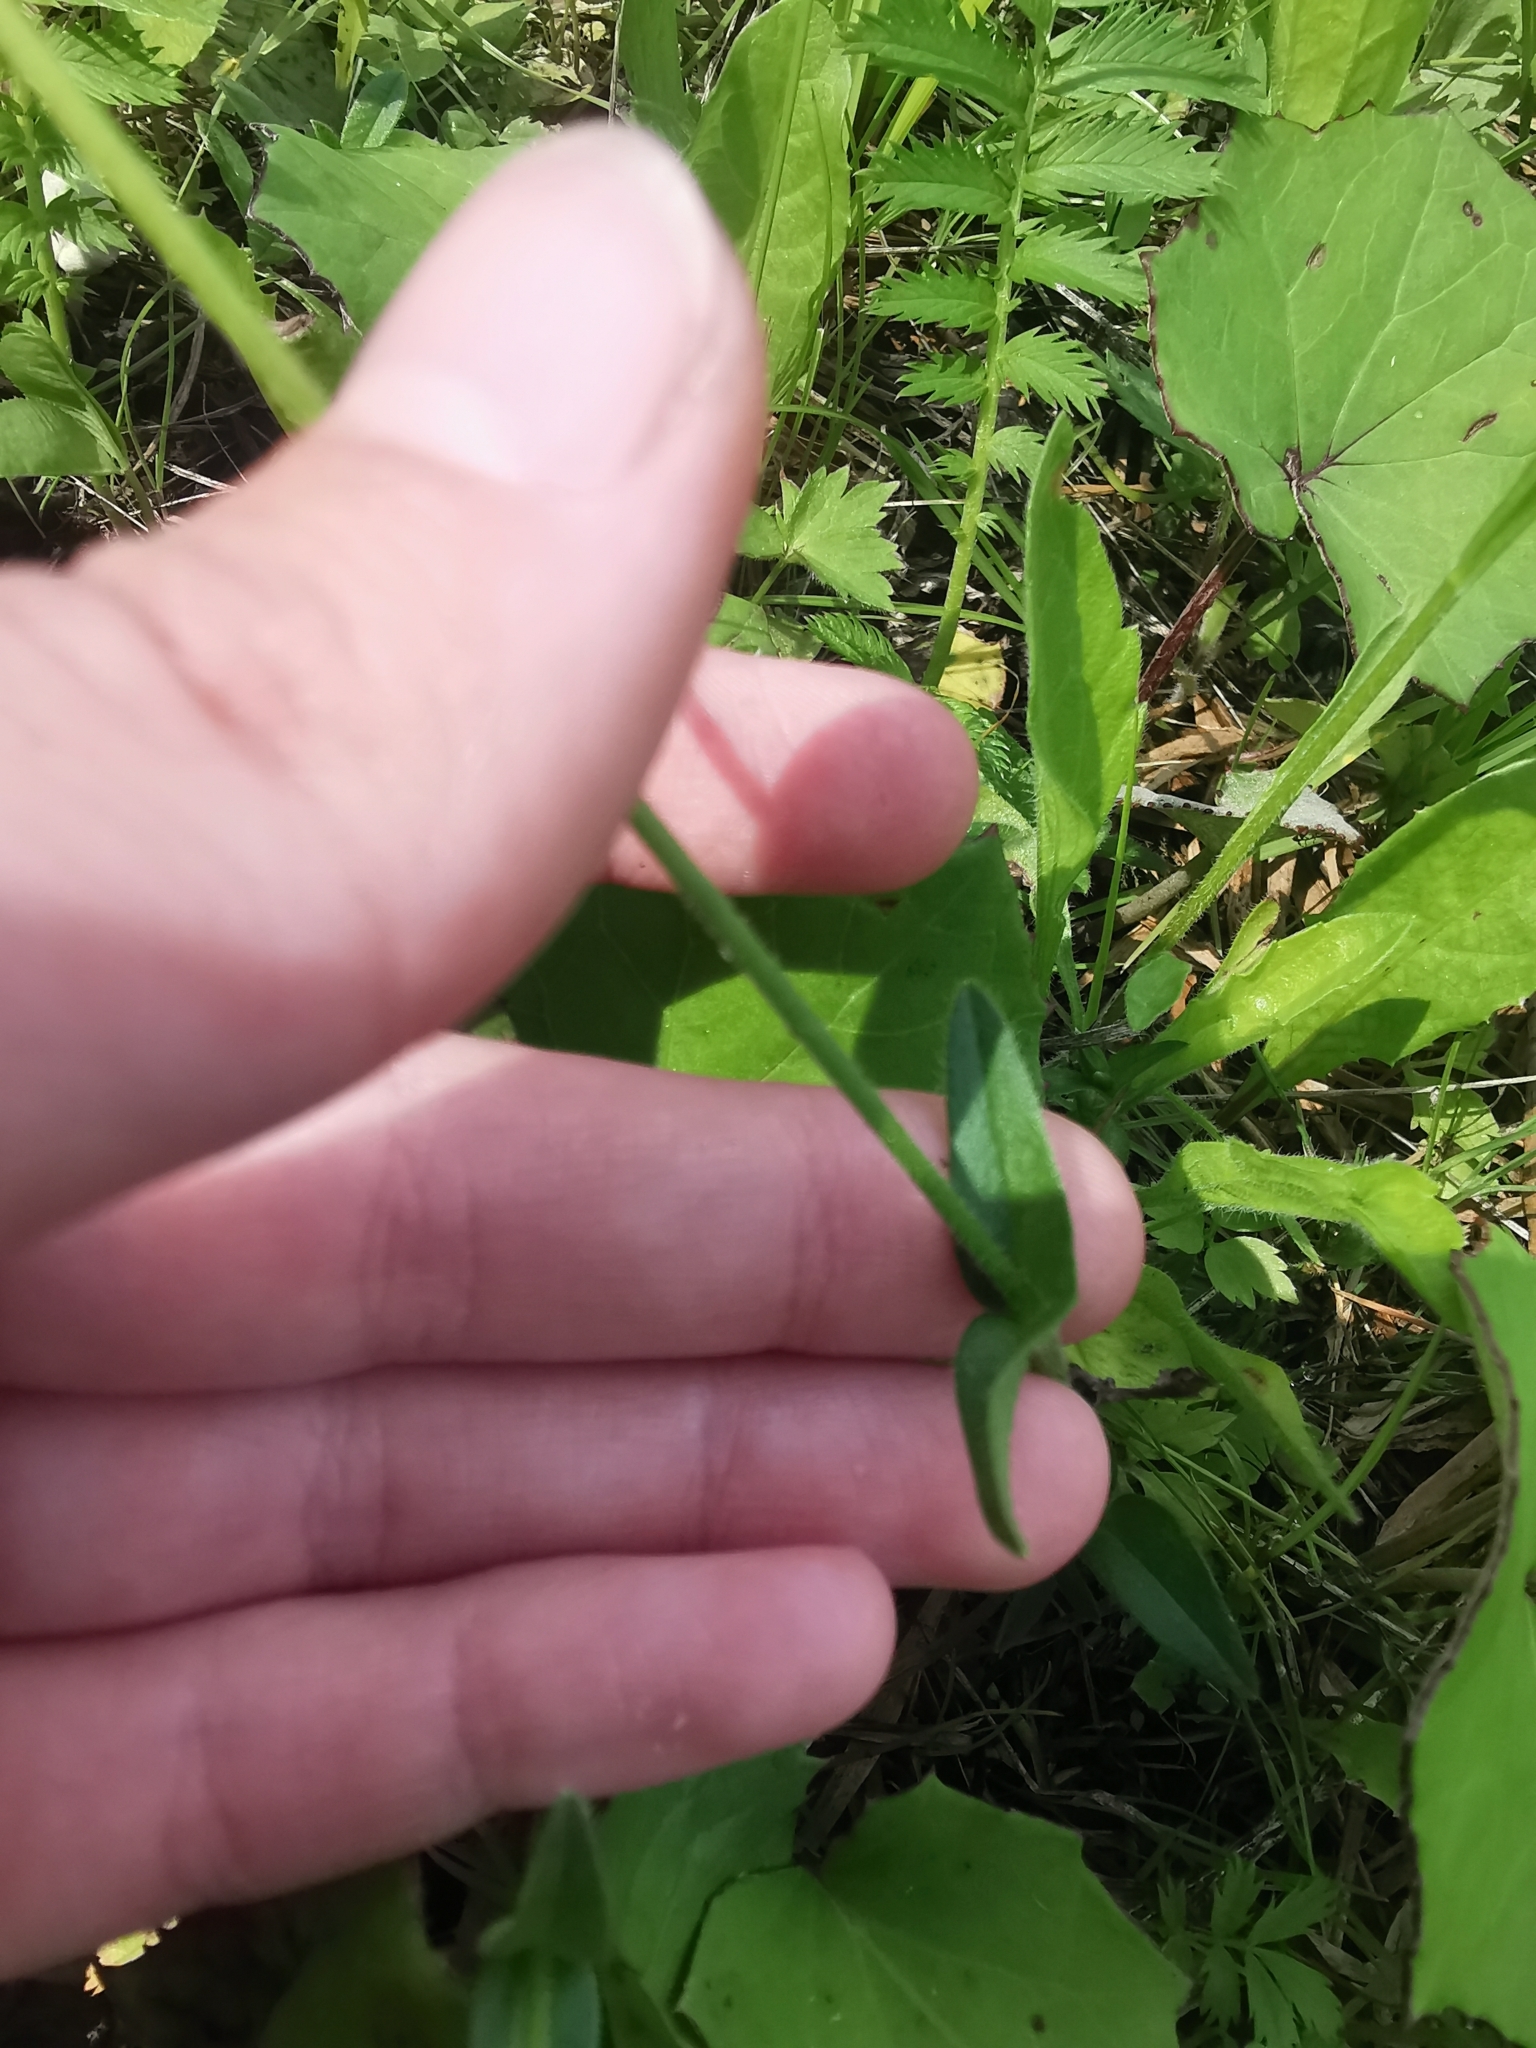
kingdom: Plantae
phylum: Tracheophyta
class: Magnoliopsida
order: Caryophyllales
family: Caryophyllaceae
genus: Cerastium
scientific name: Cerastium holosteoides
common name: Big chickweed
